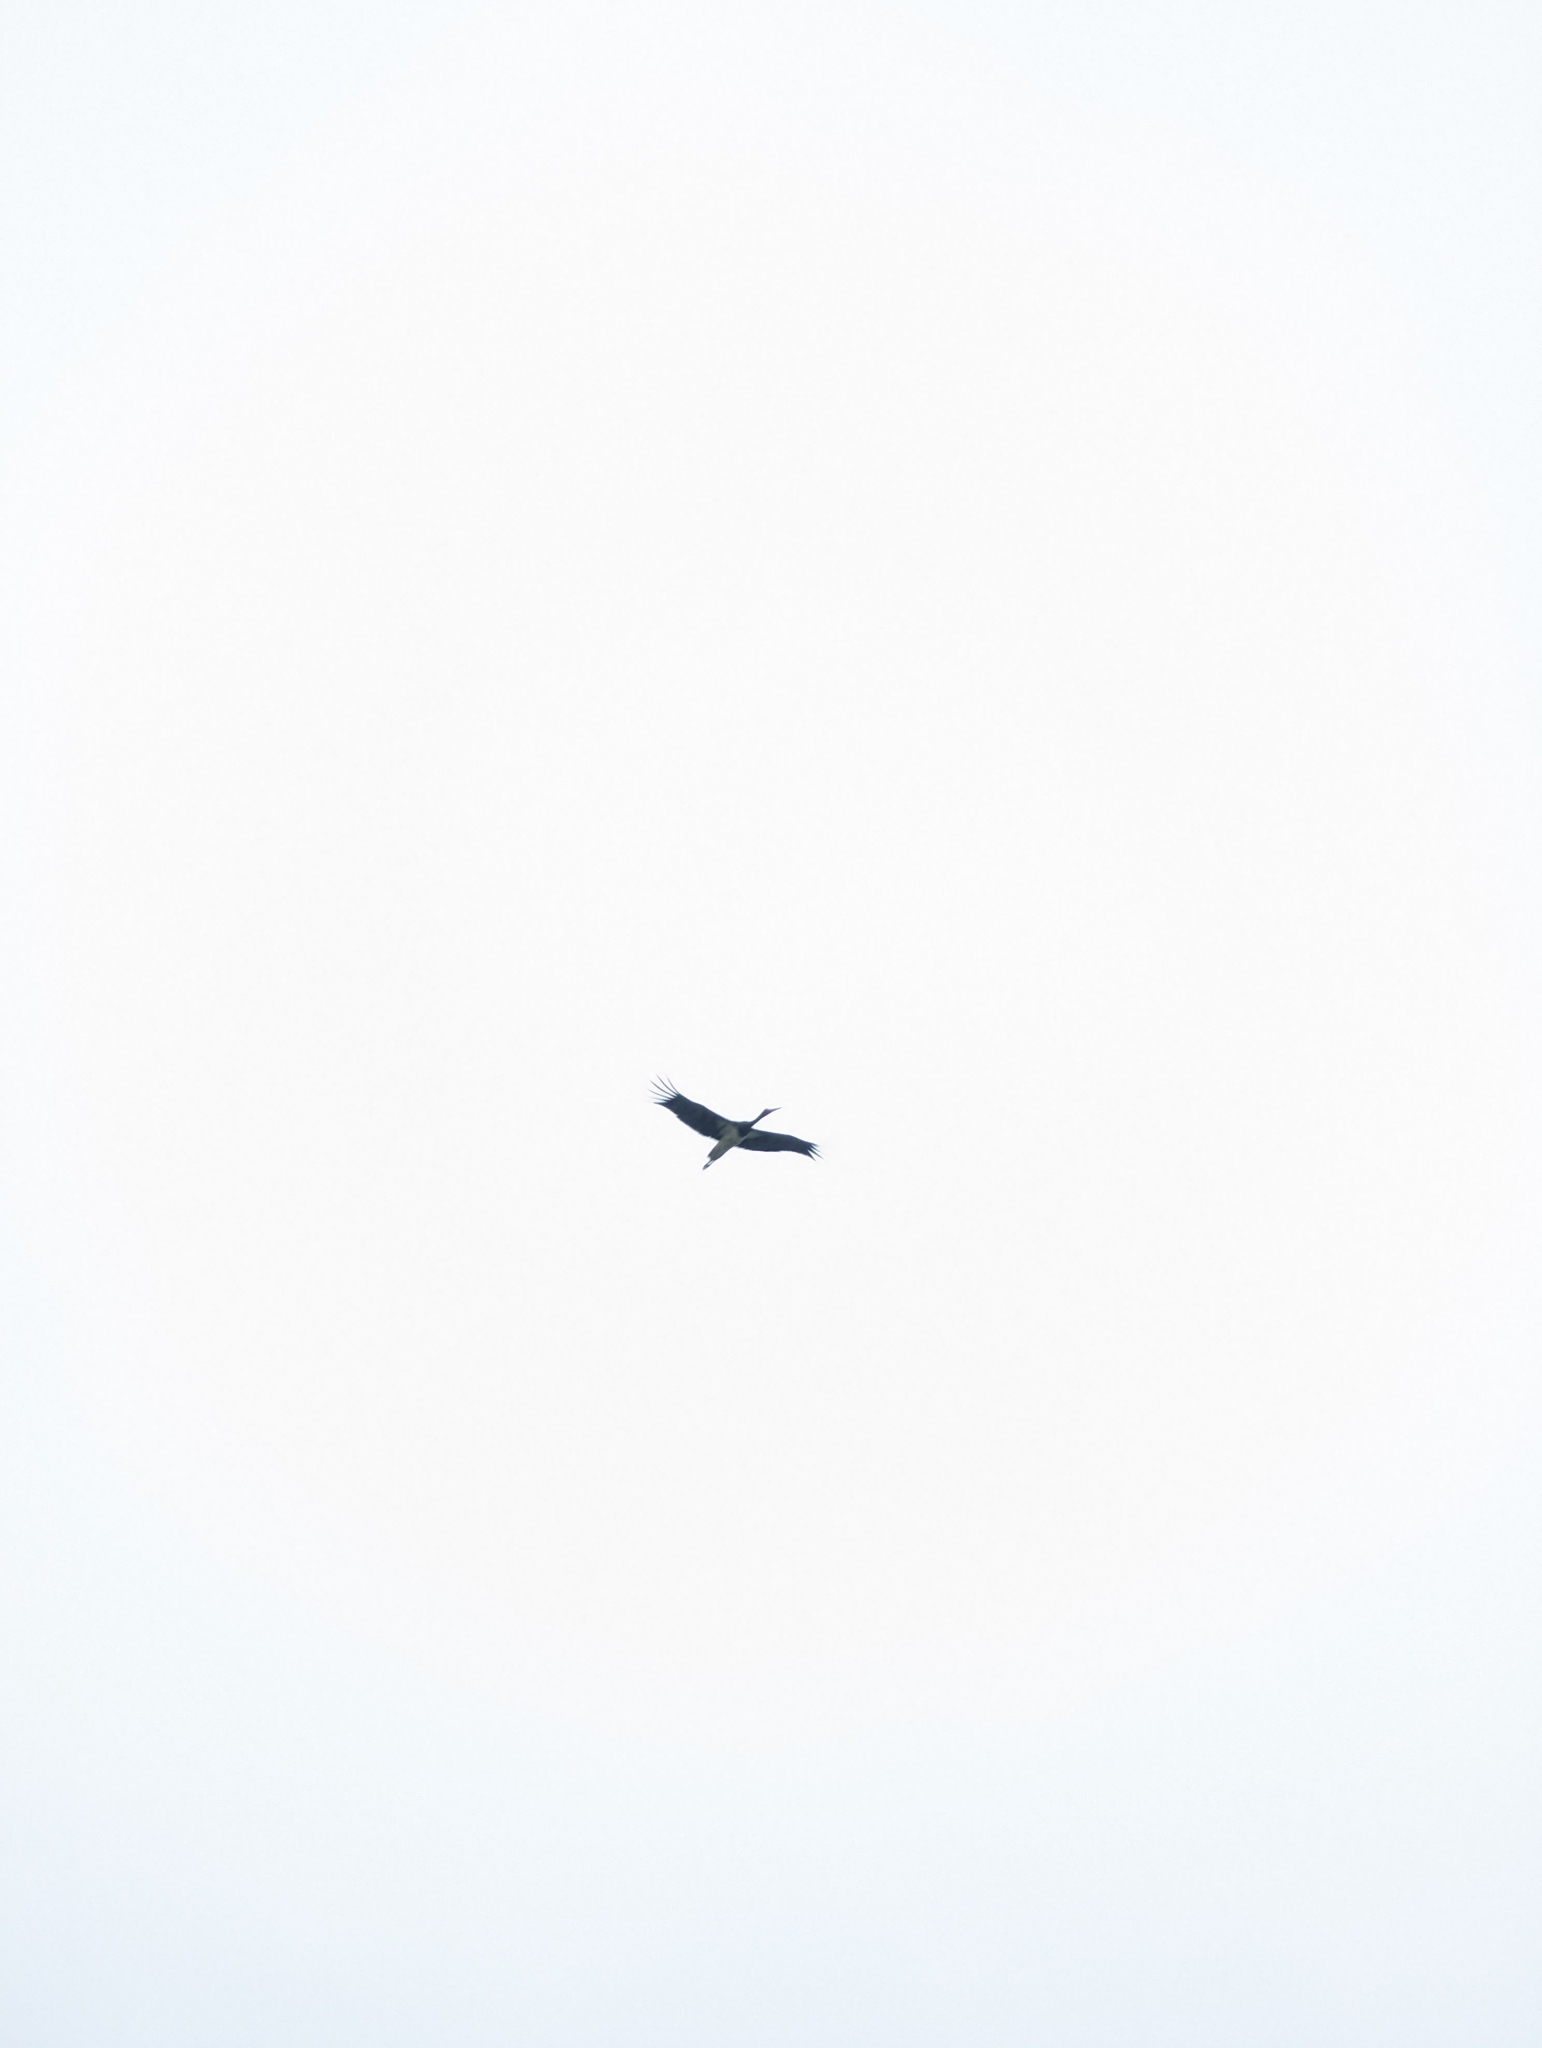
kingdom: Animalia
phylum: Chordata
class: Aves
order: Ciconiiformes
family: Ciconiidae
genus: Ciconia
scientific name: Ciconia nigra
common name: Black stork
